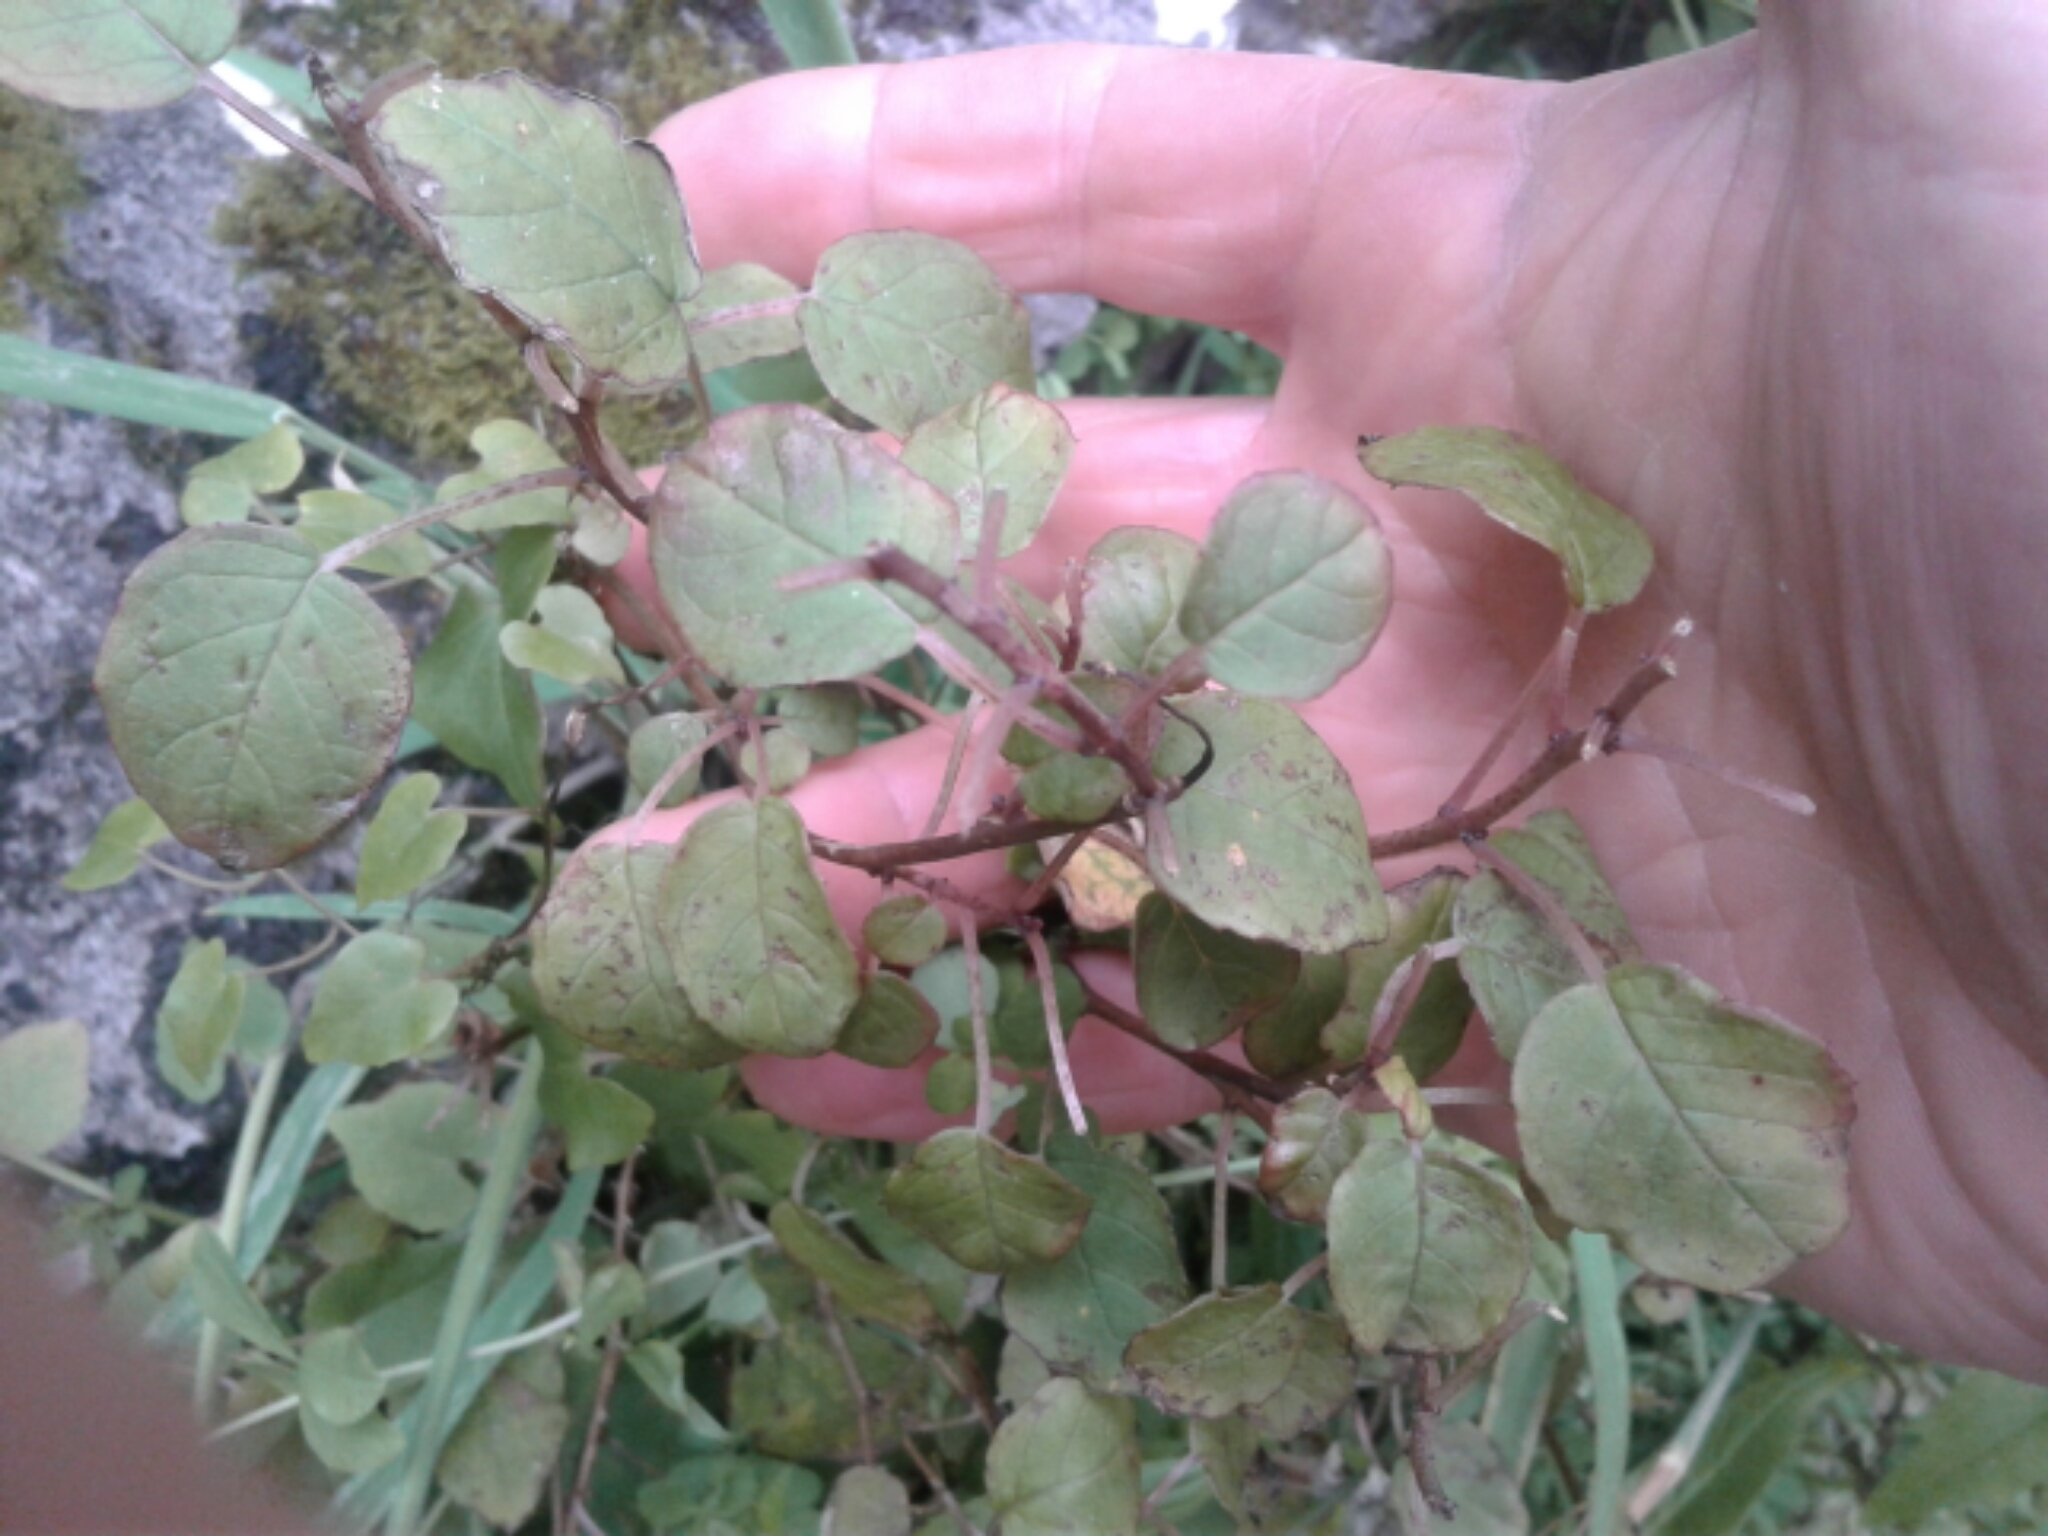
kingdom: Plantae
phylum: Tracheophyta
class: Magnoliopsida
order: Myrtales
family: Onagraceae
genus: Fuchsia
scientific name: Fuchsia perscandens
